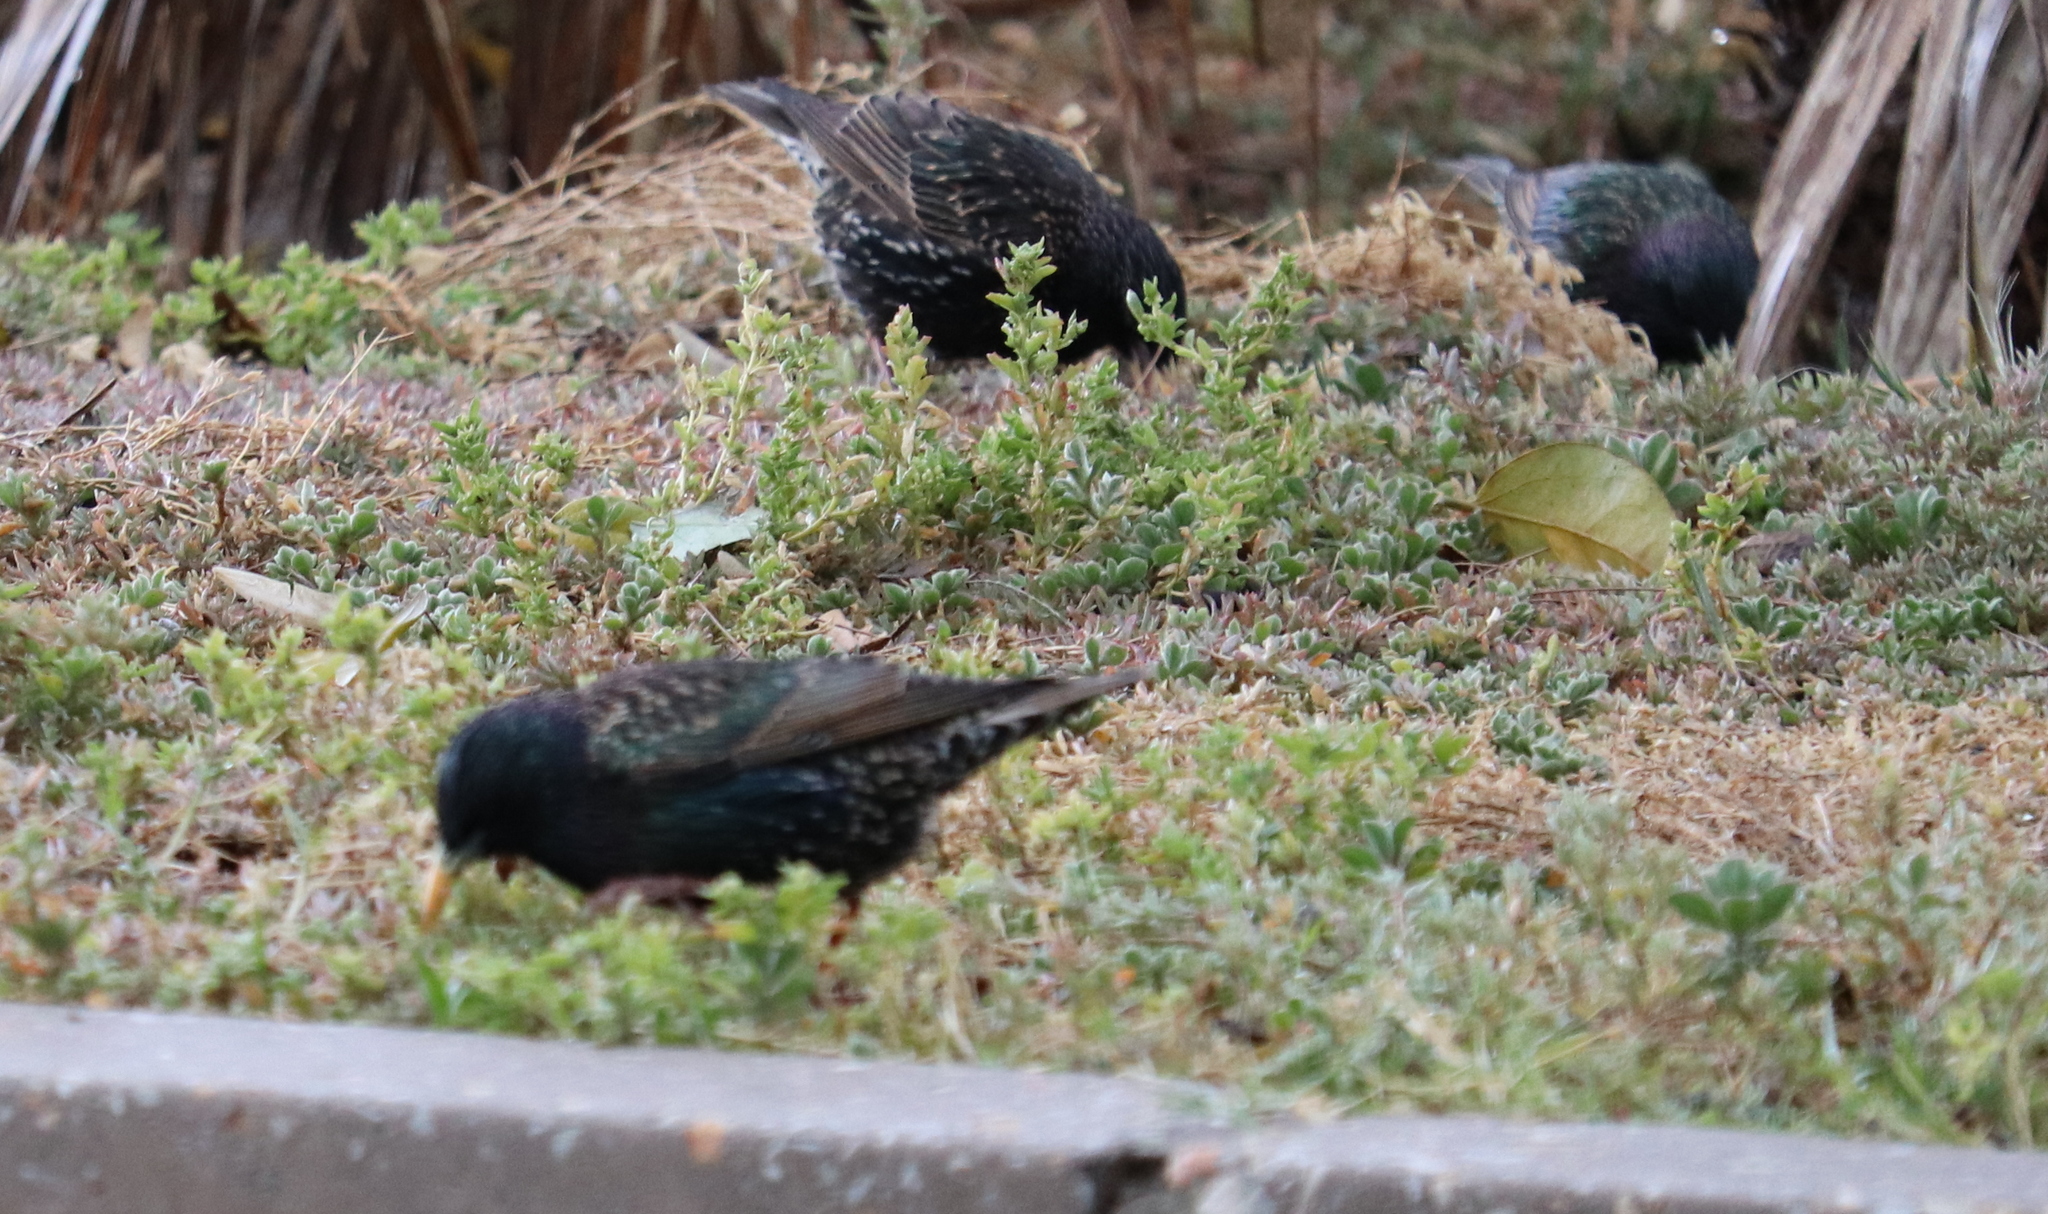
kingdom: Animalia
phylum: Chordata
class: Aves
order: Passeriformes
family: Sturnidae
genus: Sturnus
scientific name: Sturnus vulgaris
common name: Common starling
